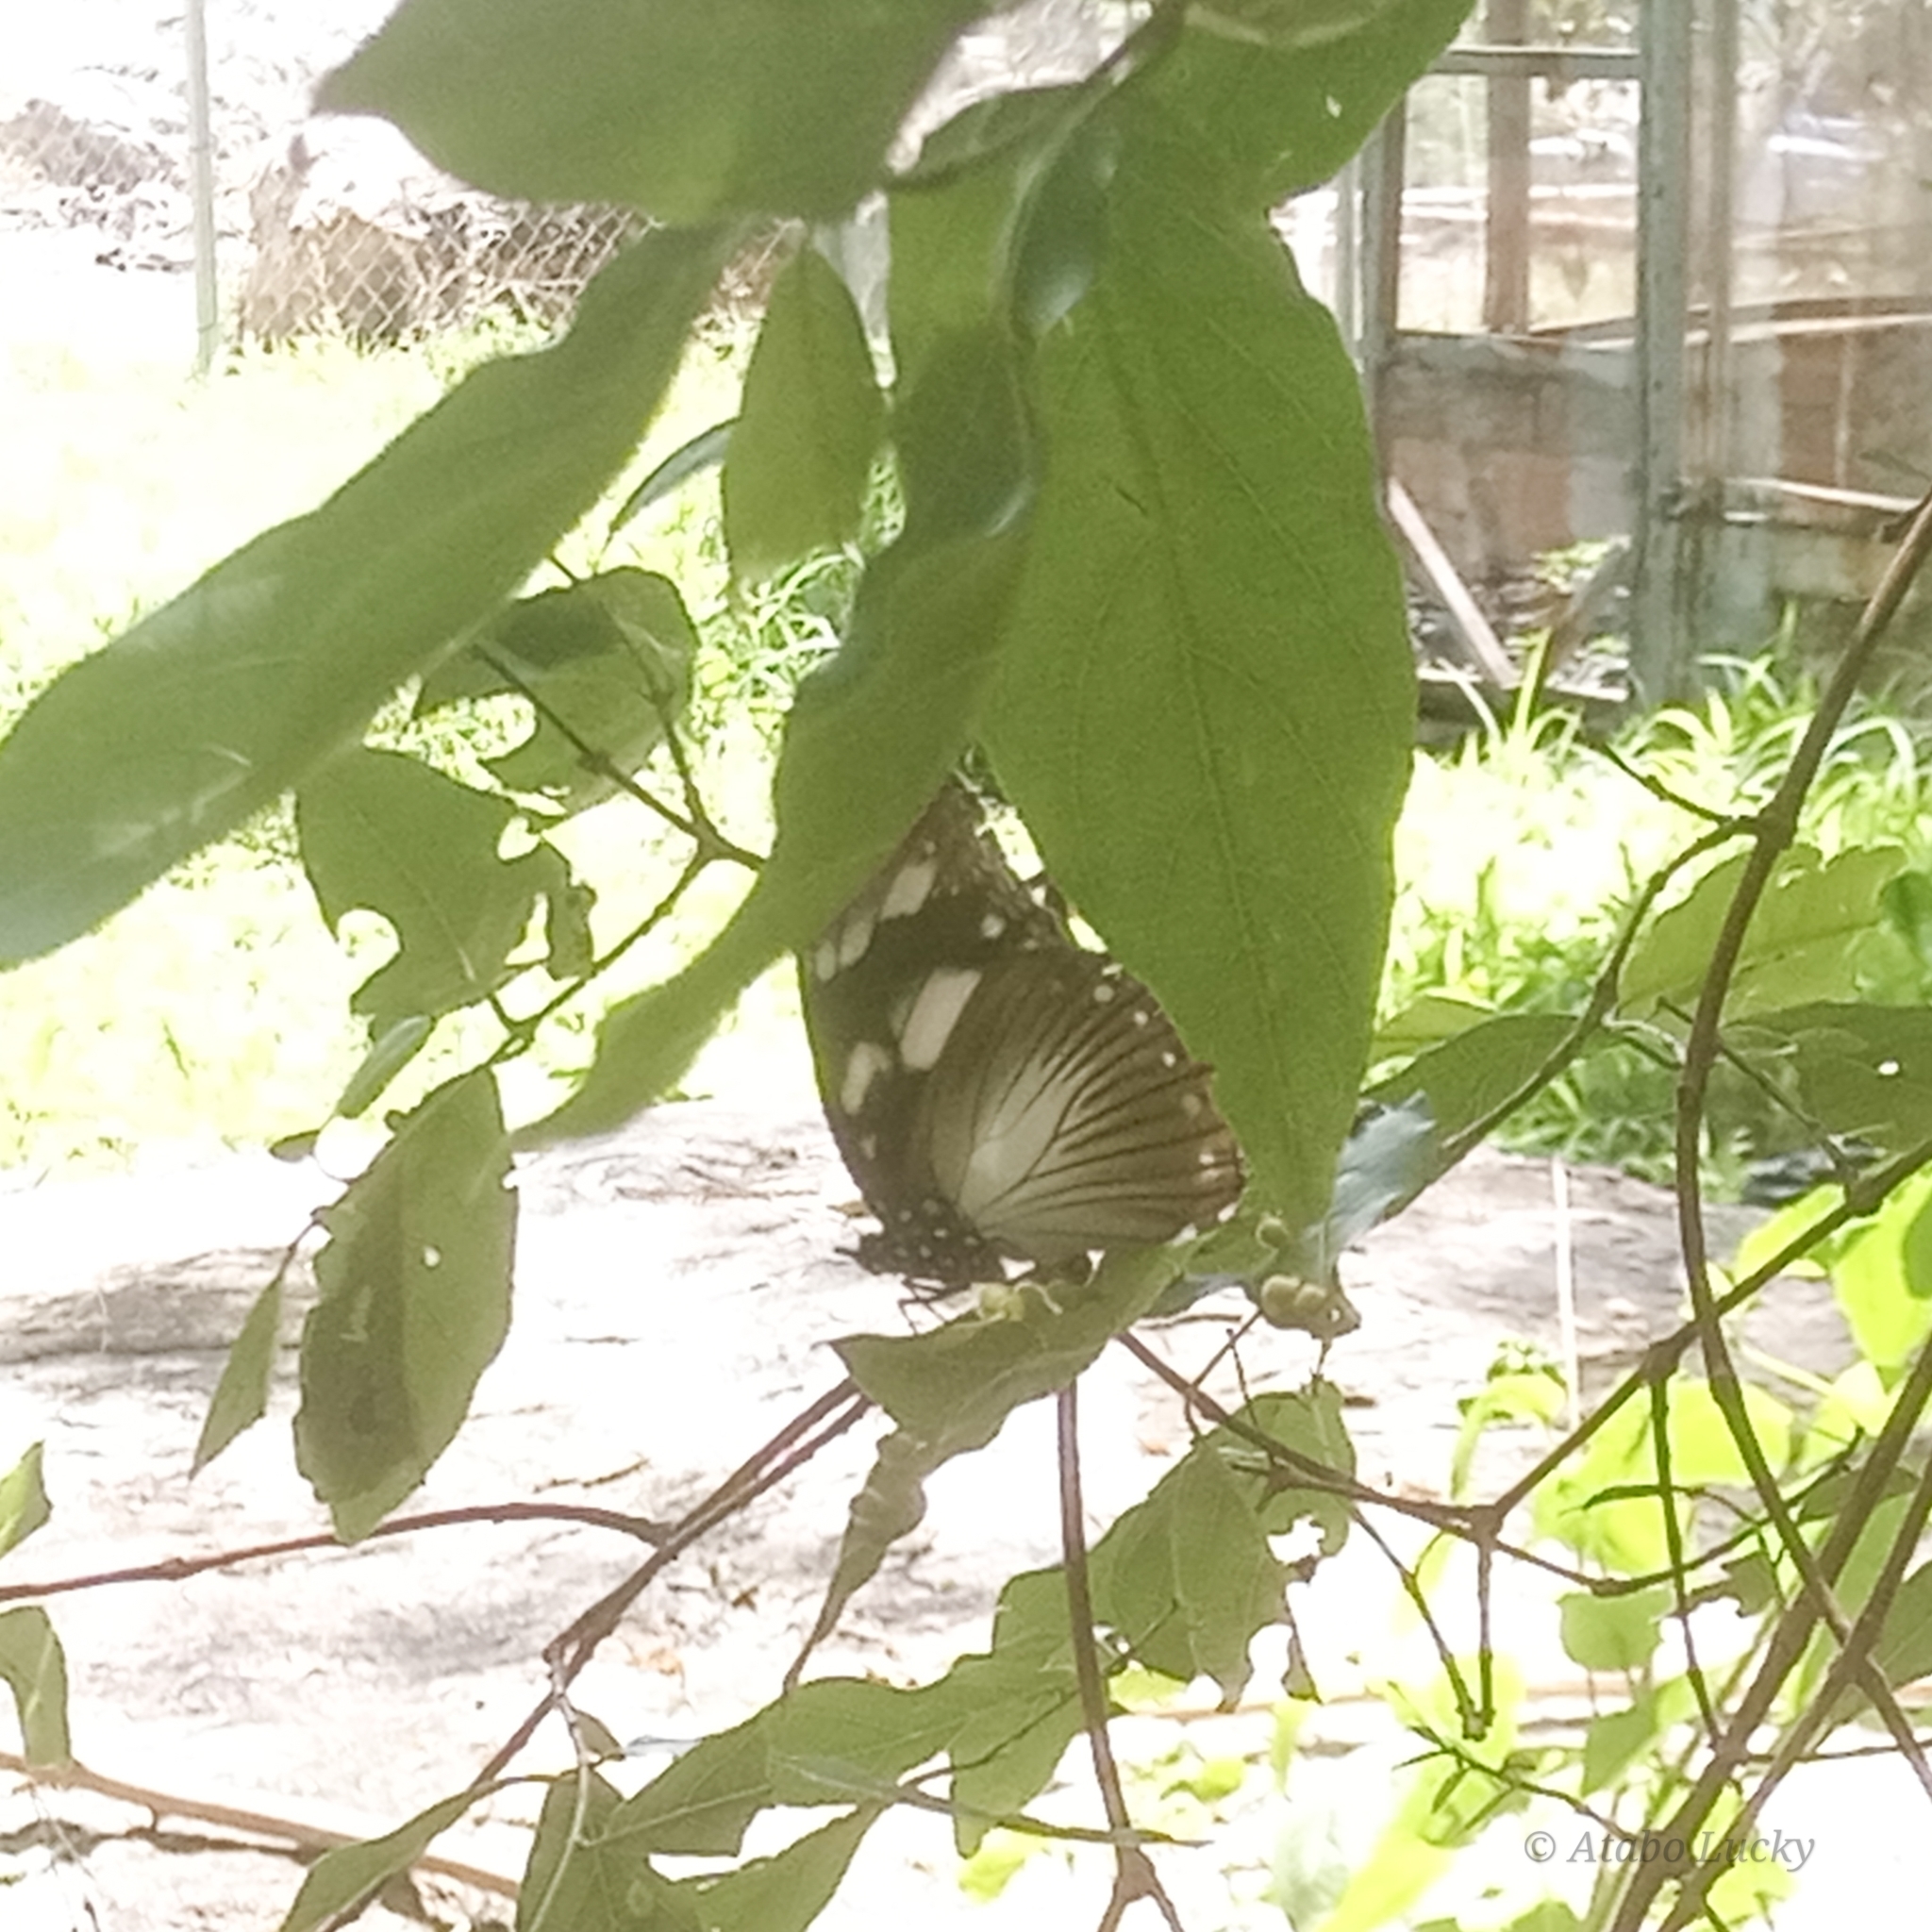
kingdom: Animalia
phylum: Arthropoda
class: Insecta
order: Lepidoptera
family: Nymphalidae
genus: Hypolimnas
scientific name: Hypolimnas dubius
